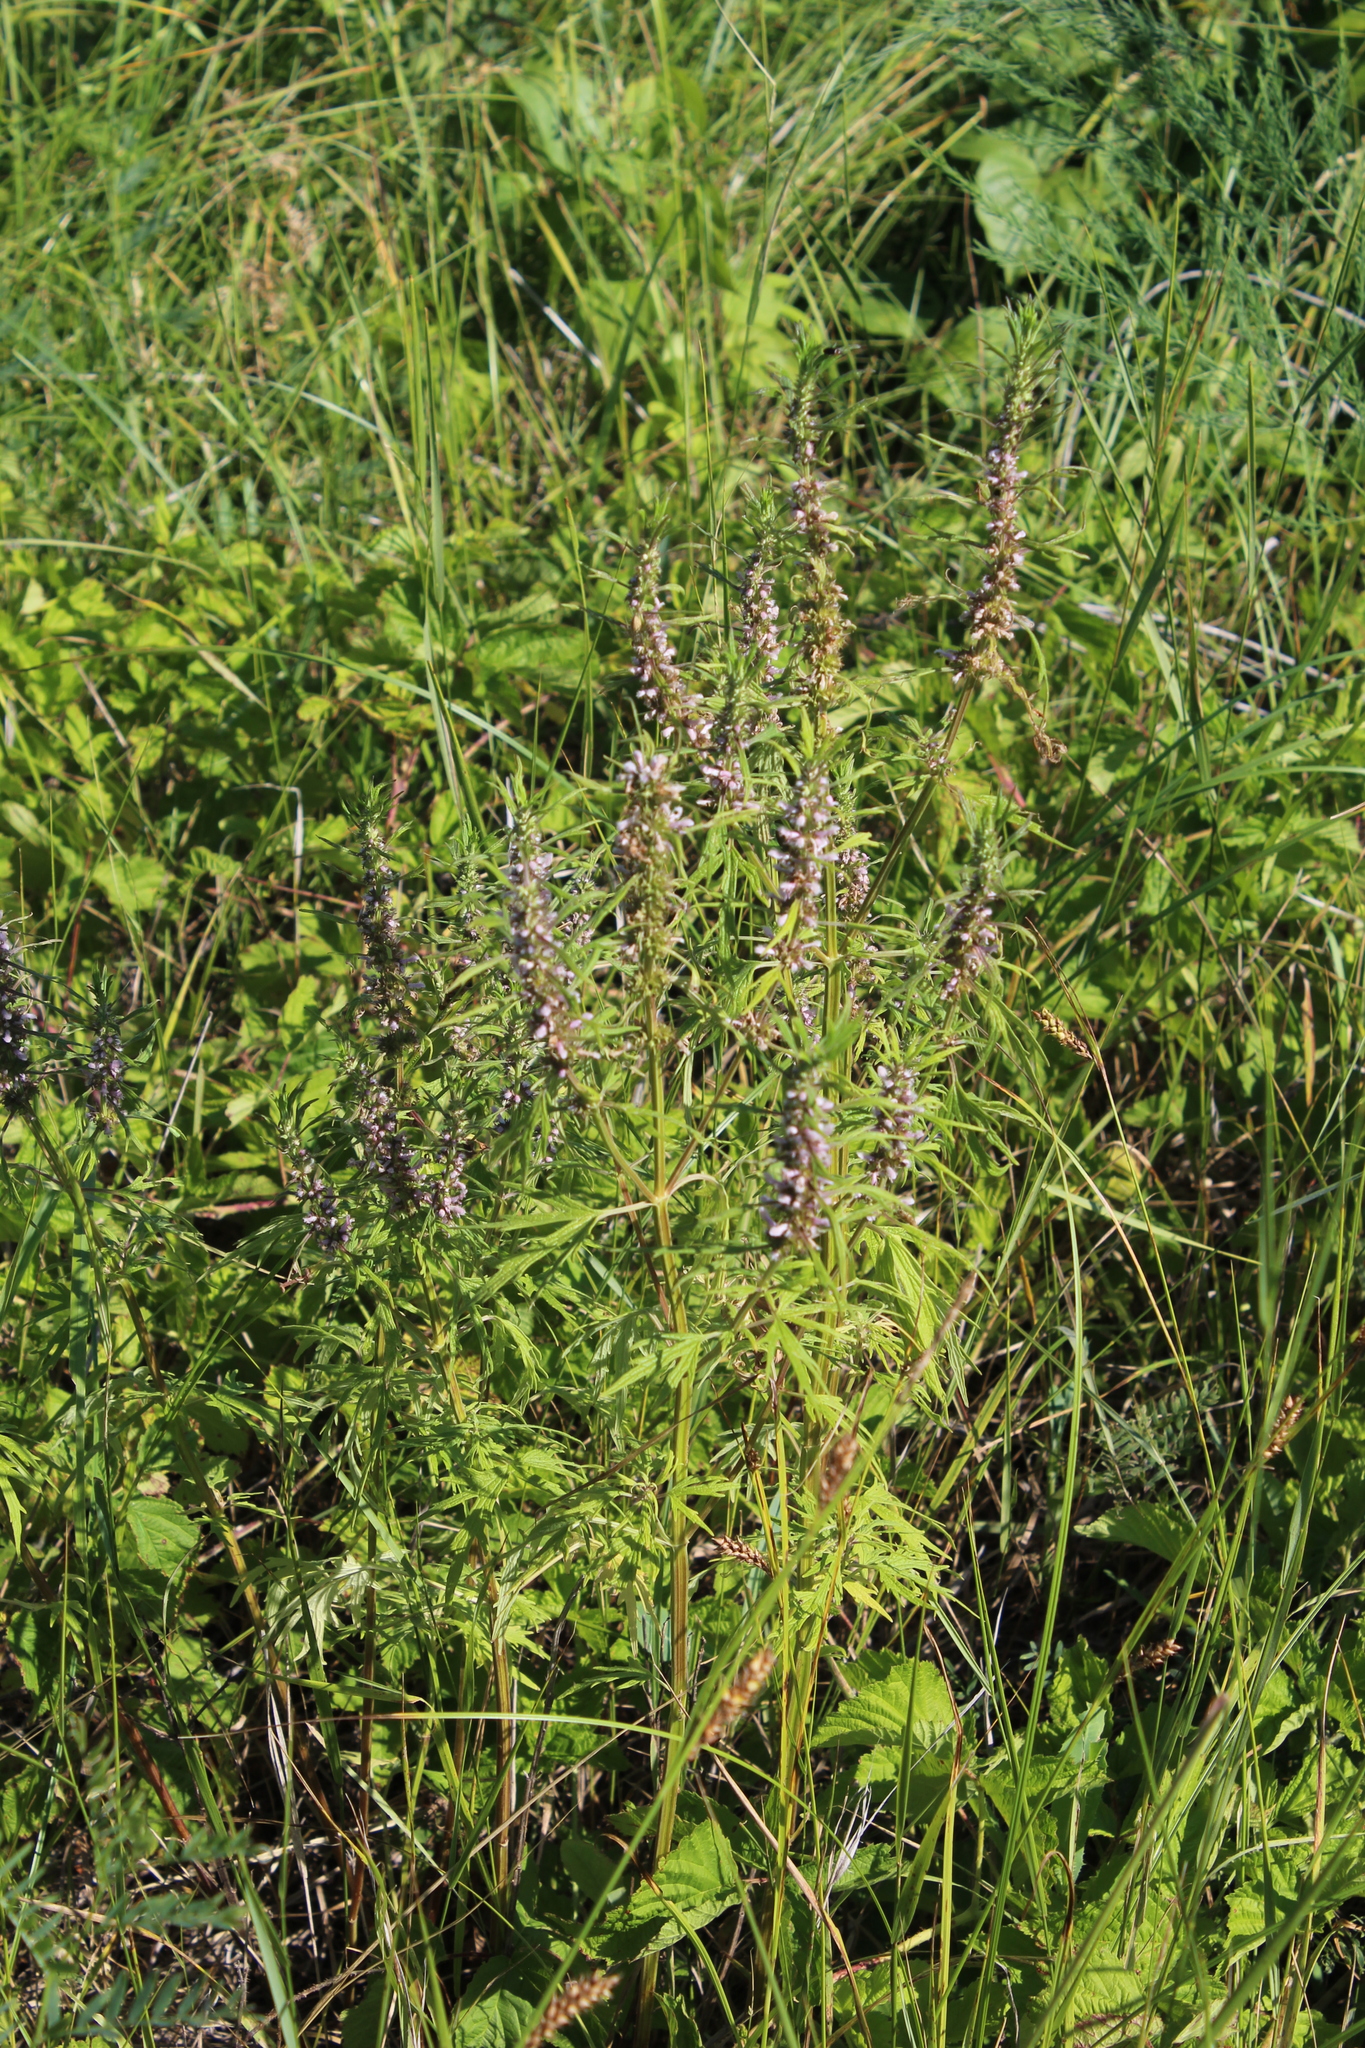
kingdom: Plantae
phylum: Tracheophyta
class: Magnoliopsida
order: Lamiales
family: Lamiaceae
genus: Leonurus
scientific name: Leonurus glaucescens
